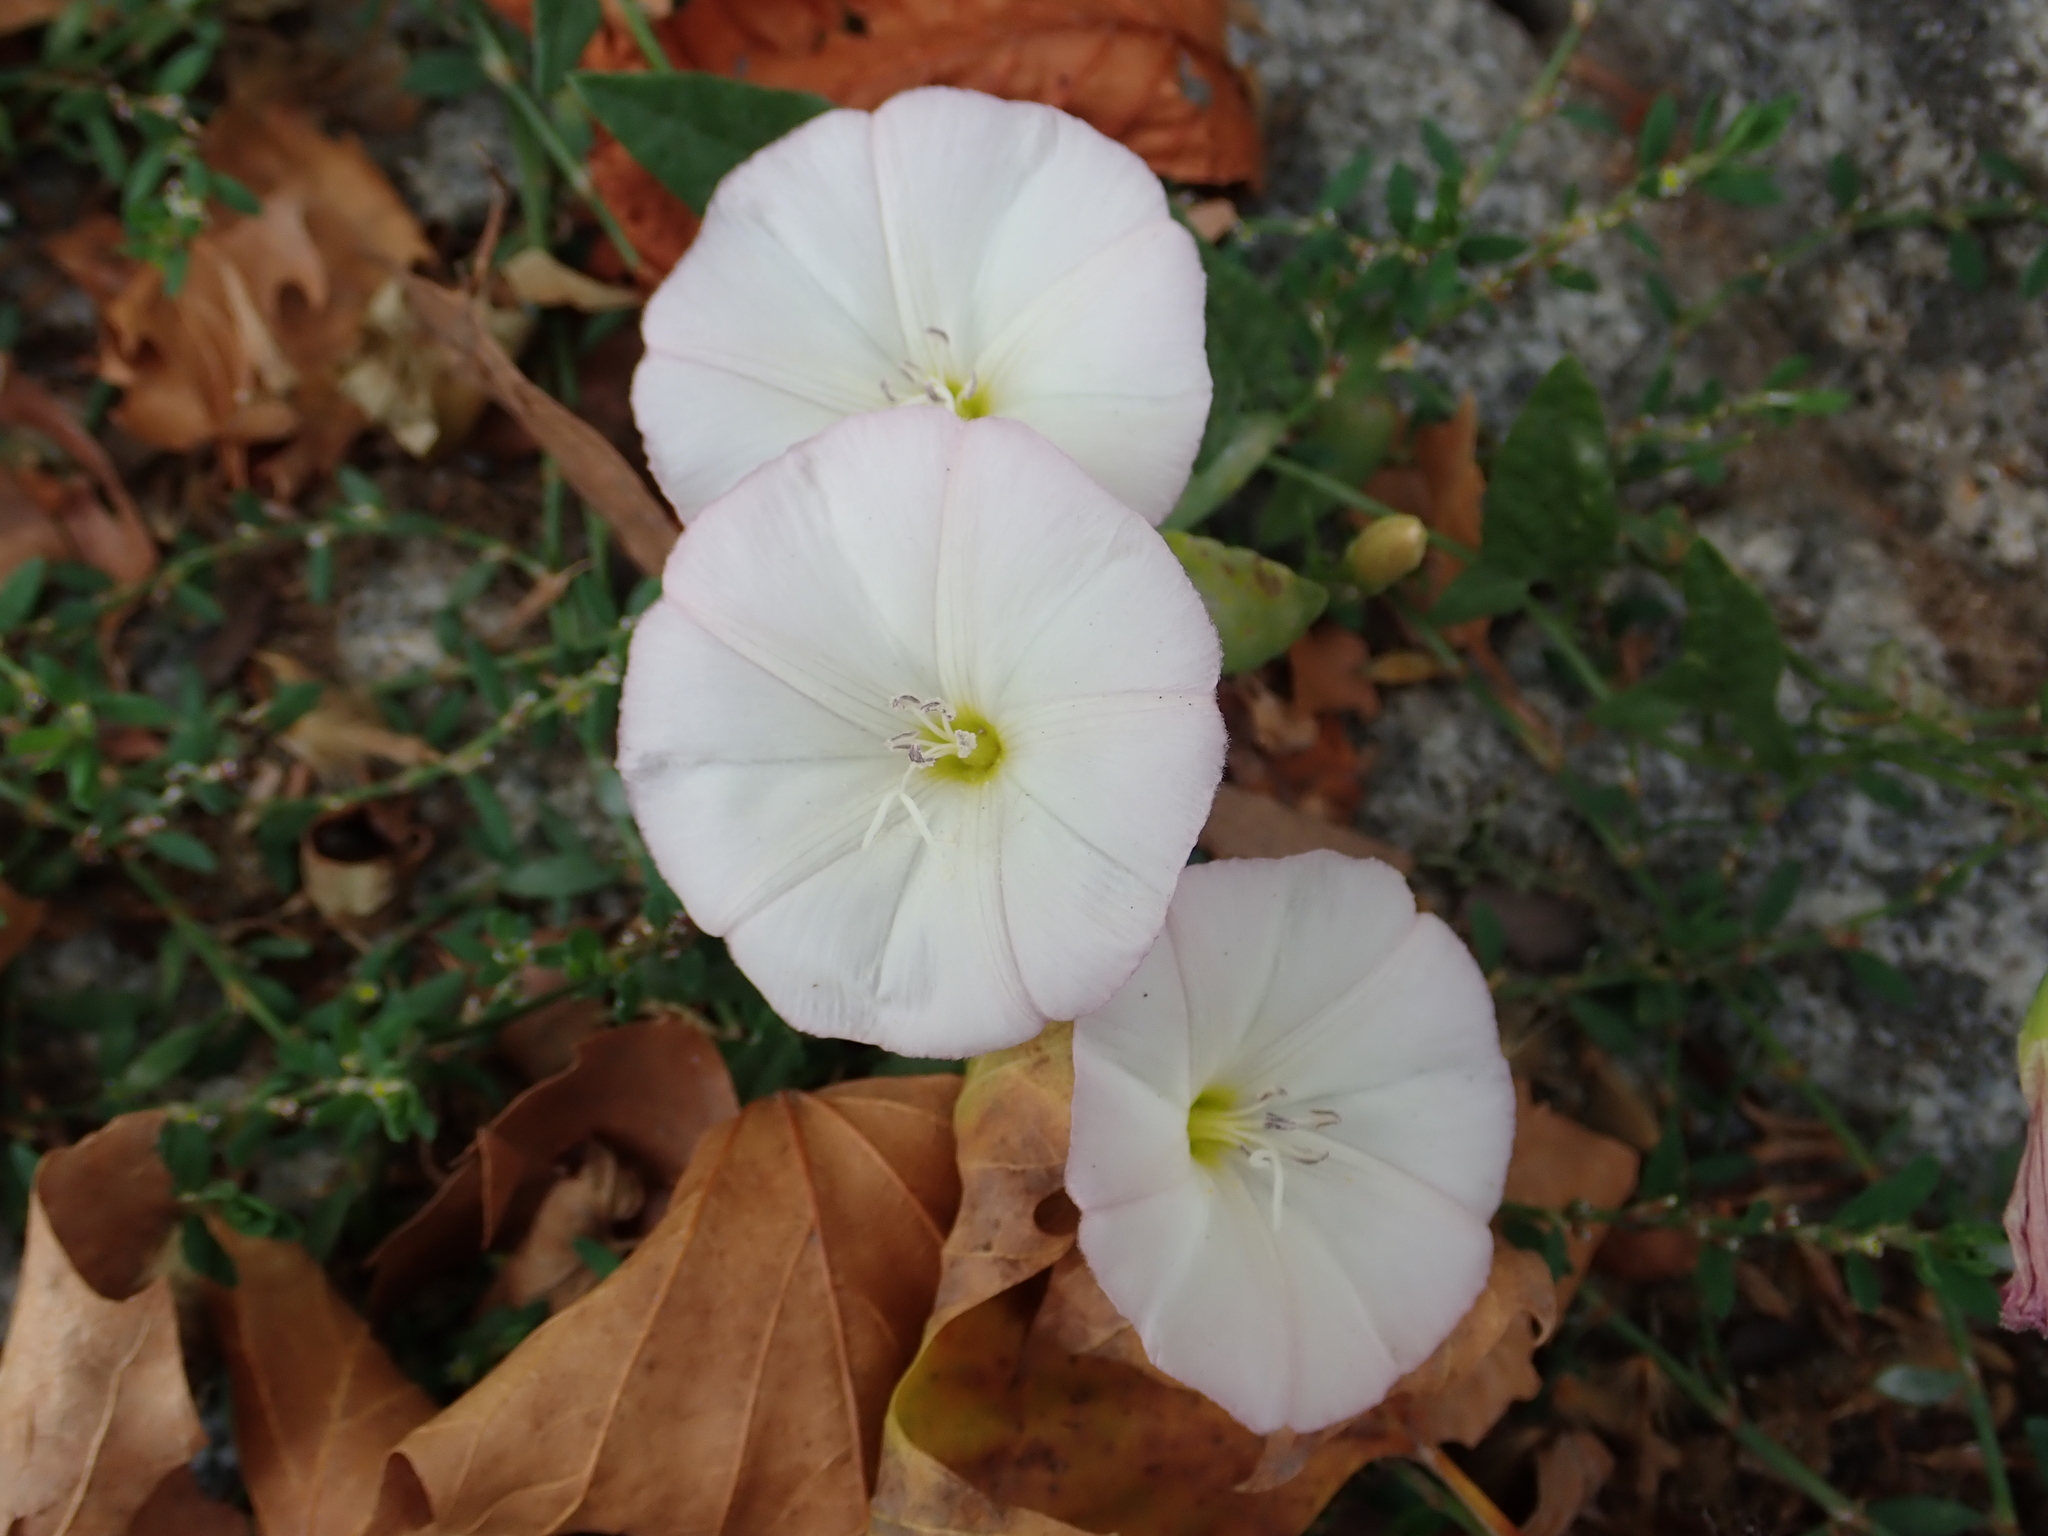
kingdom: Plantae
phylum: Tracheophyta
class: Magnoliopsida
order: Solanales
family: Convolvulaceae
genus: Convolvulus
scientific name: Convolvulus arvensis
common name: Field bindweed
